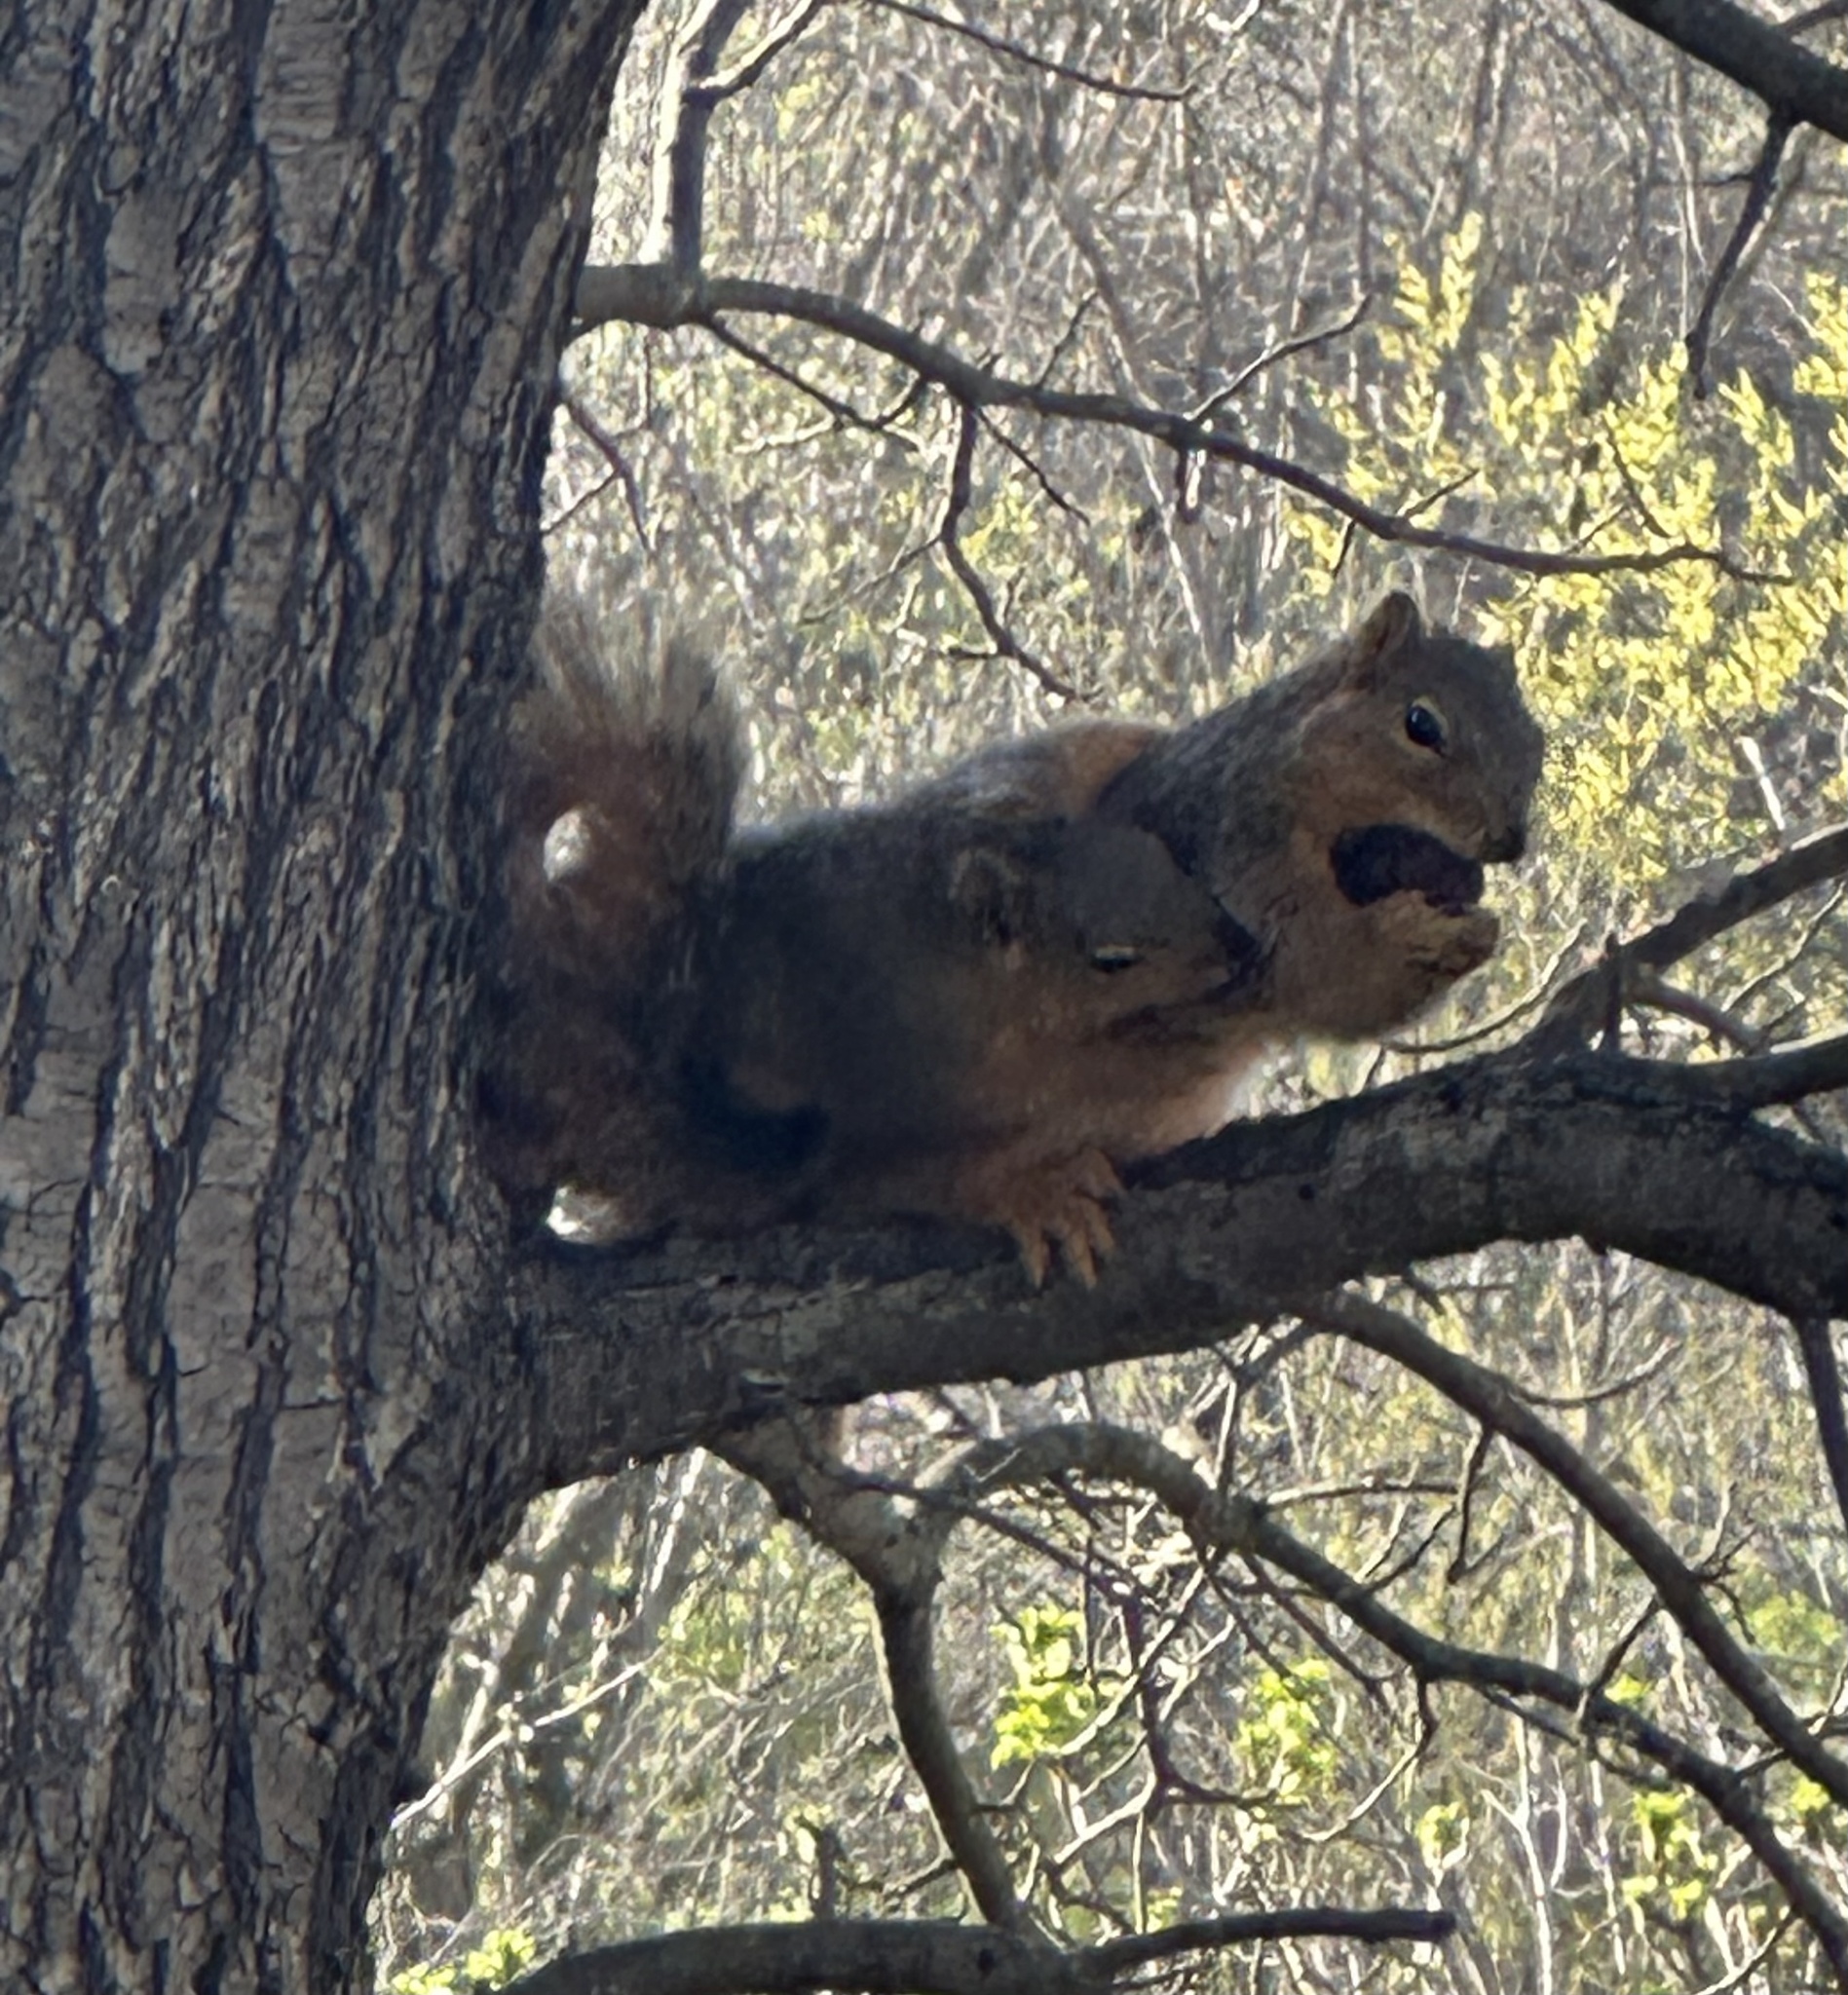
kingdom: Animalia
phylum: Chordata
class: Mammalia
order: Rodentia
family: Sciuridae
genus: Sciurus
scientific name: Sciurus niger
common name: Fox squirrel
